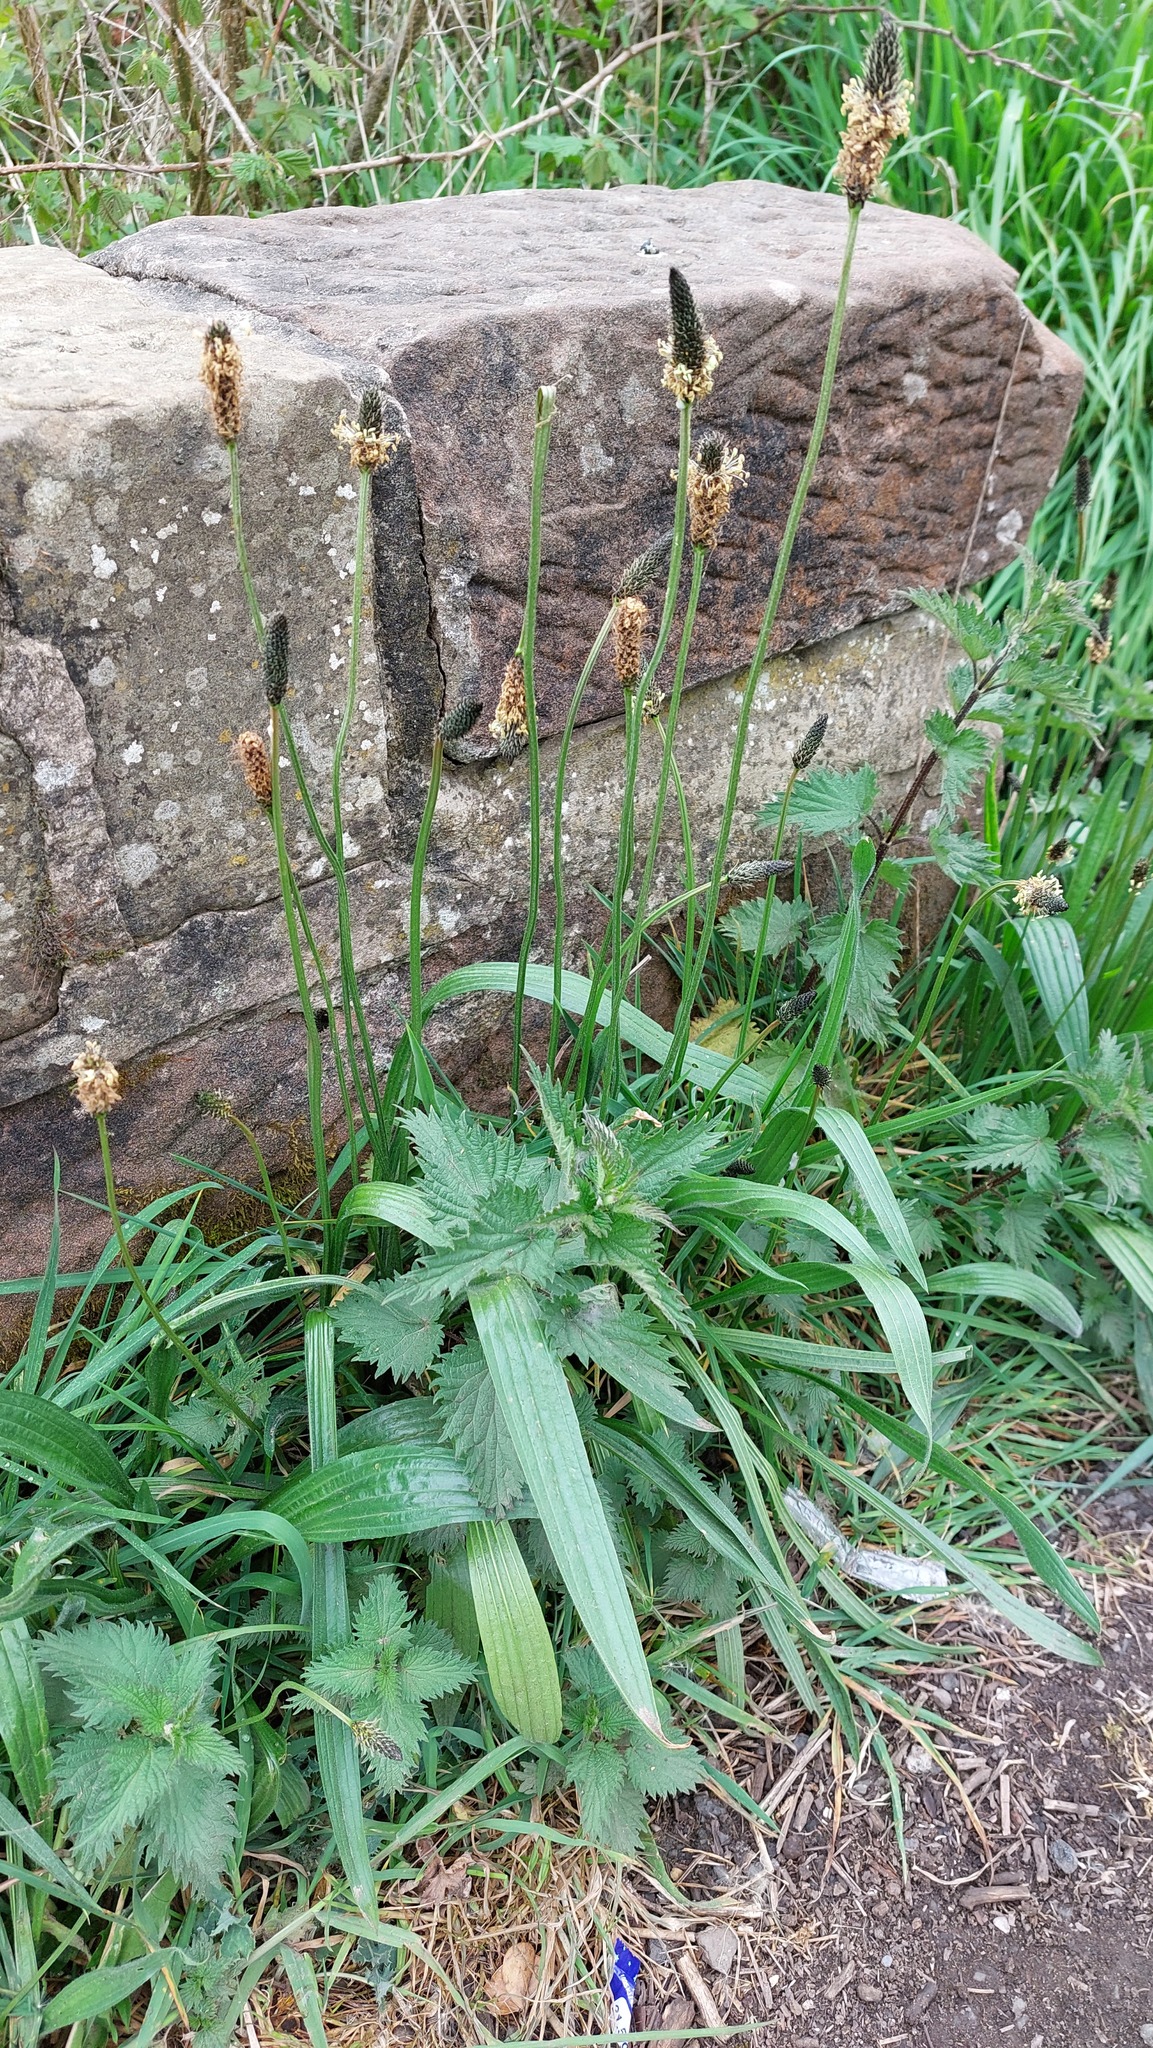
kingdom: Plantae
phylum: Tracheophyta
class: Magnoliopsida
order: Lamiales
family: Plantaginaceae
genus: Plantago
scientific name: Plantago lanceolata
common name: Ribwort plantain
